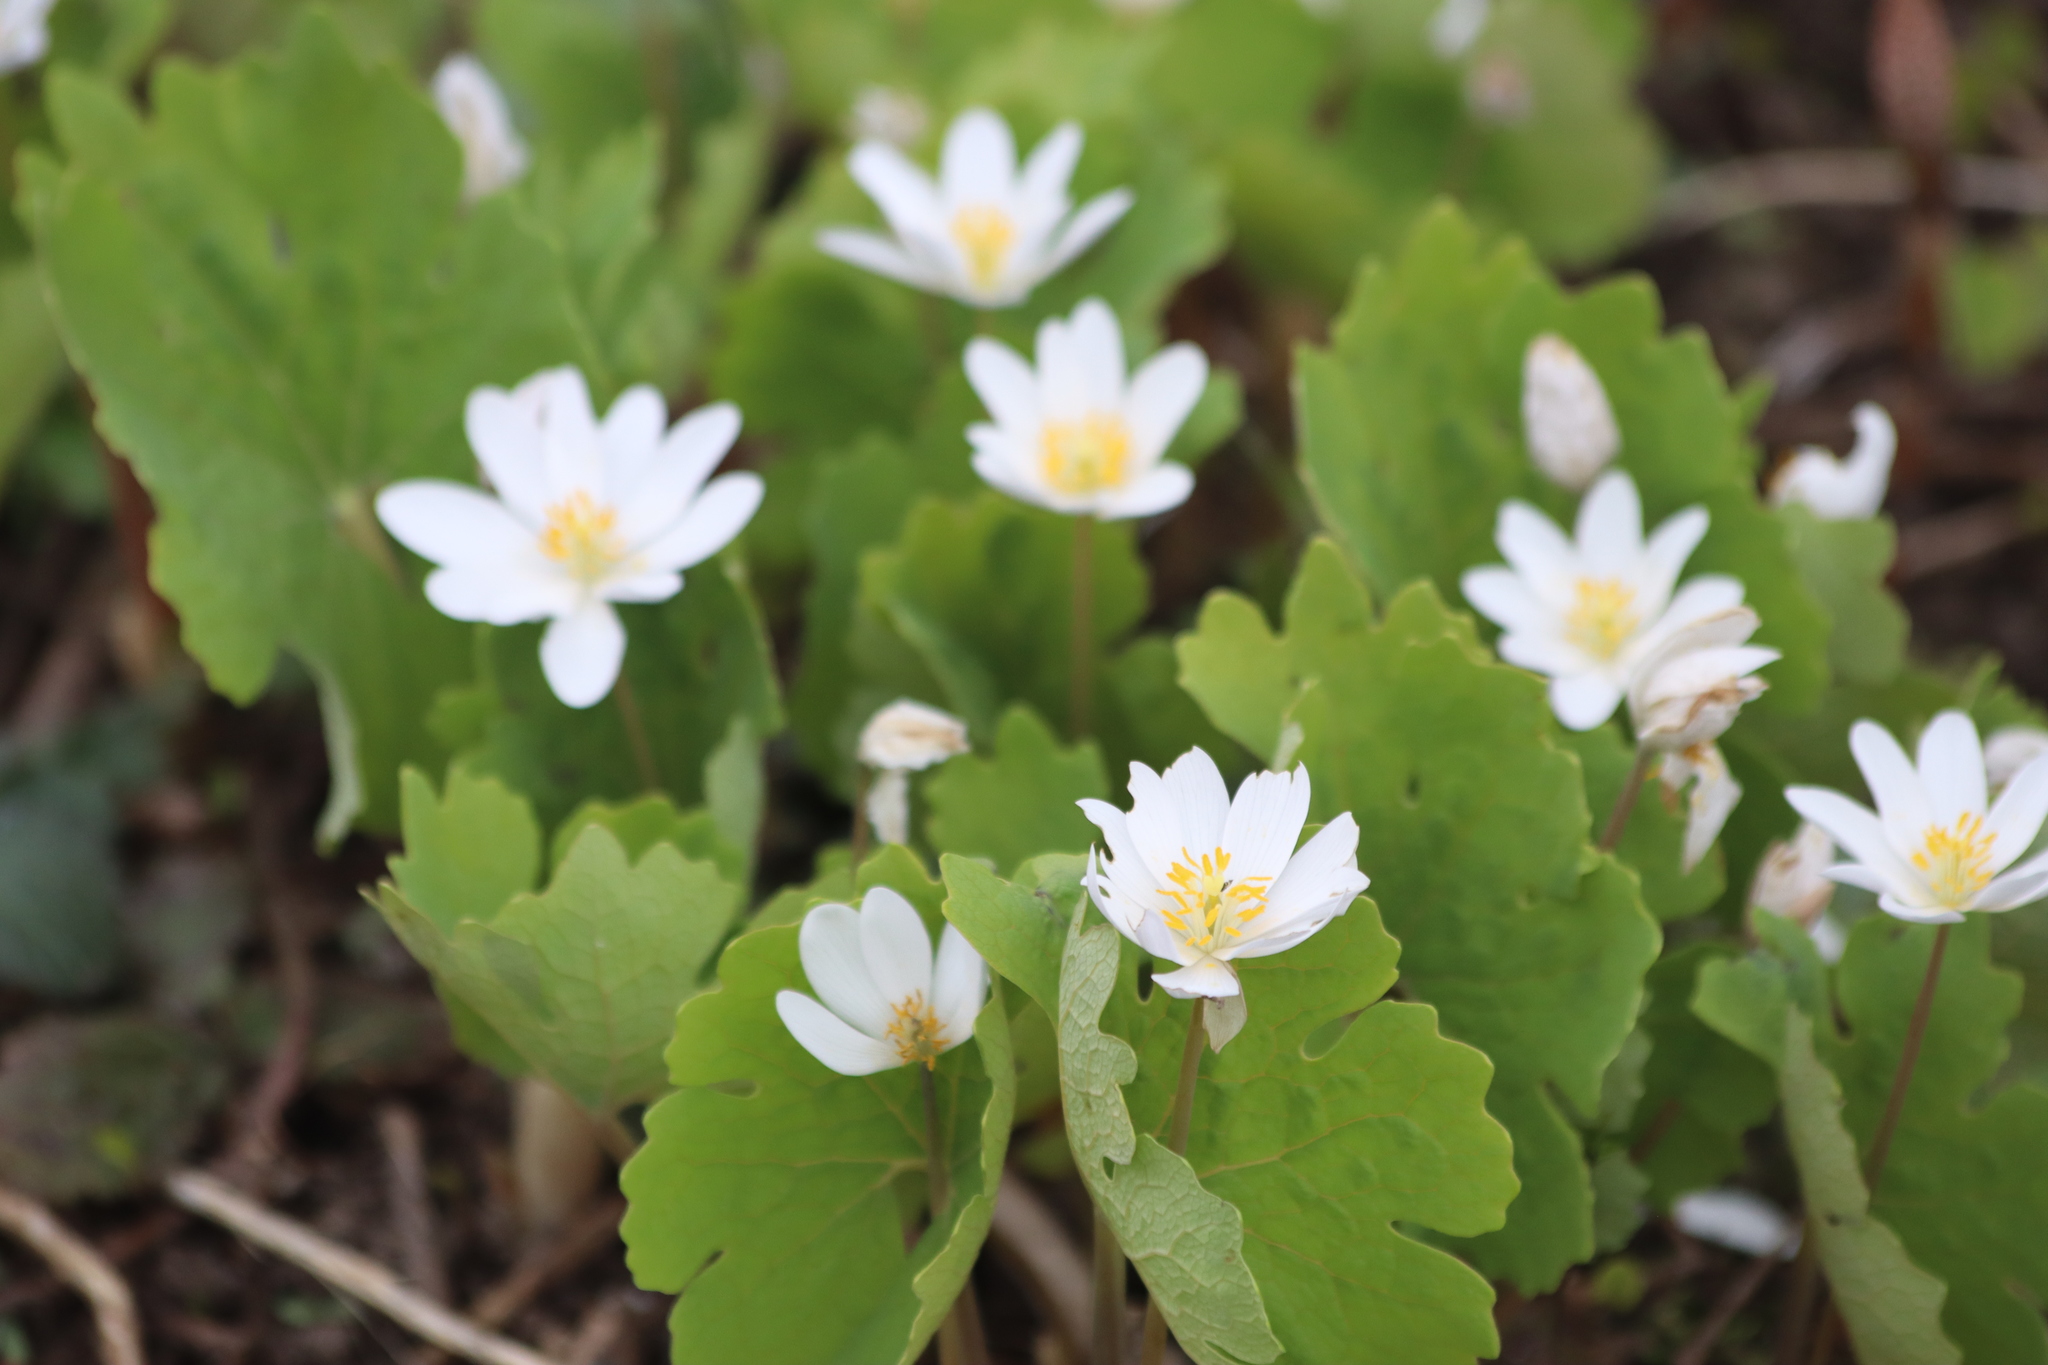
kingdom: Plantae
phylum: Tracheophyta
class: Magnoliopsida
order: Ranunculales
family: Papaveraceae
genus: Sanguinaria
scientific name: Sanguinaria canadensis
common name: Bloodroot
